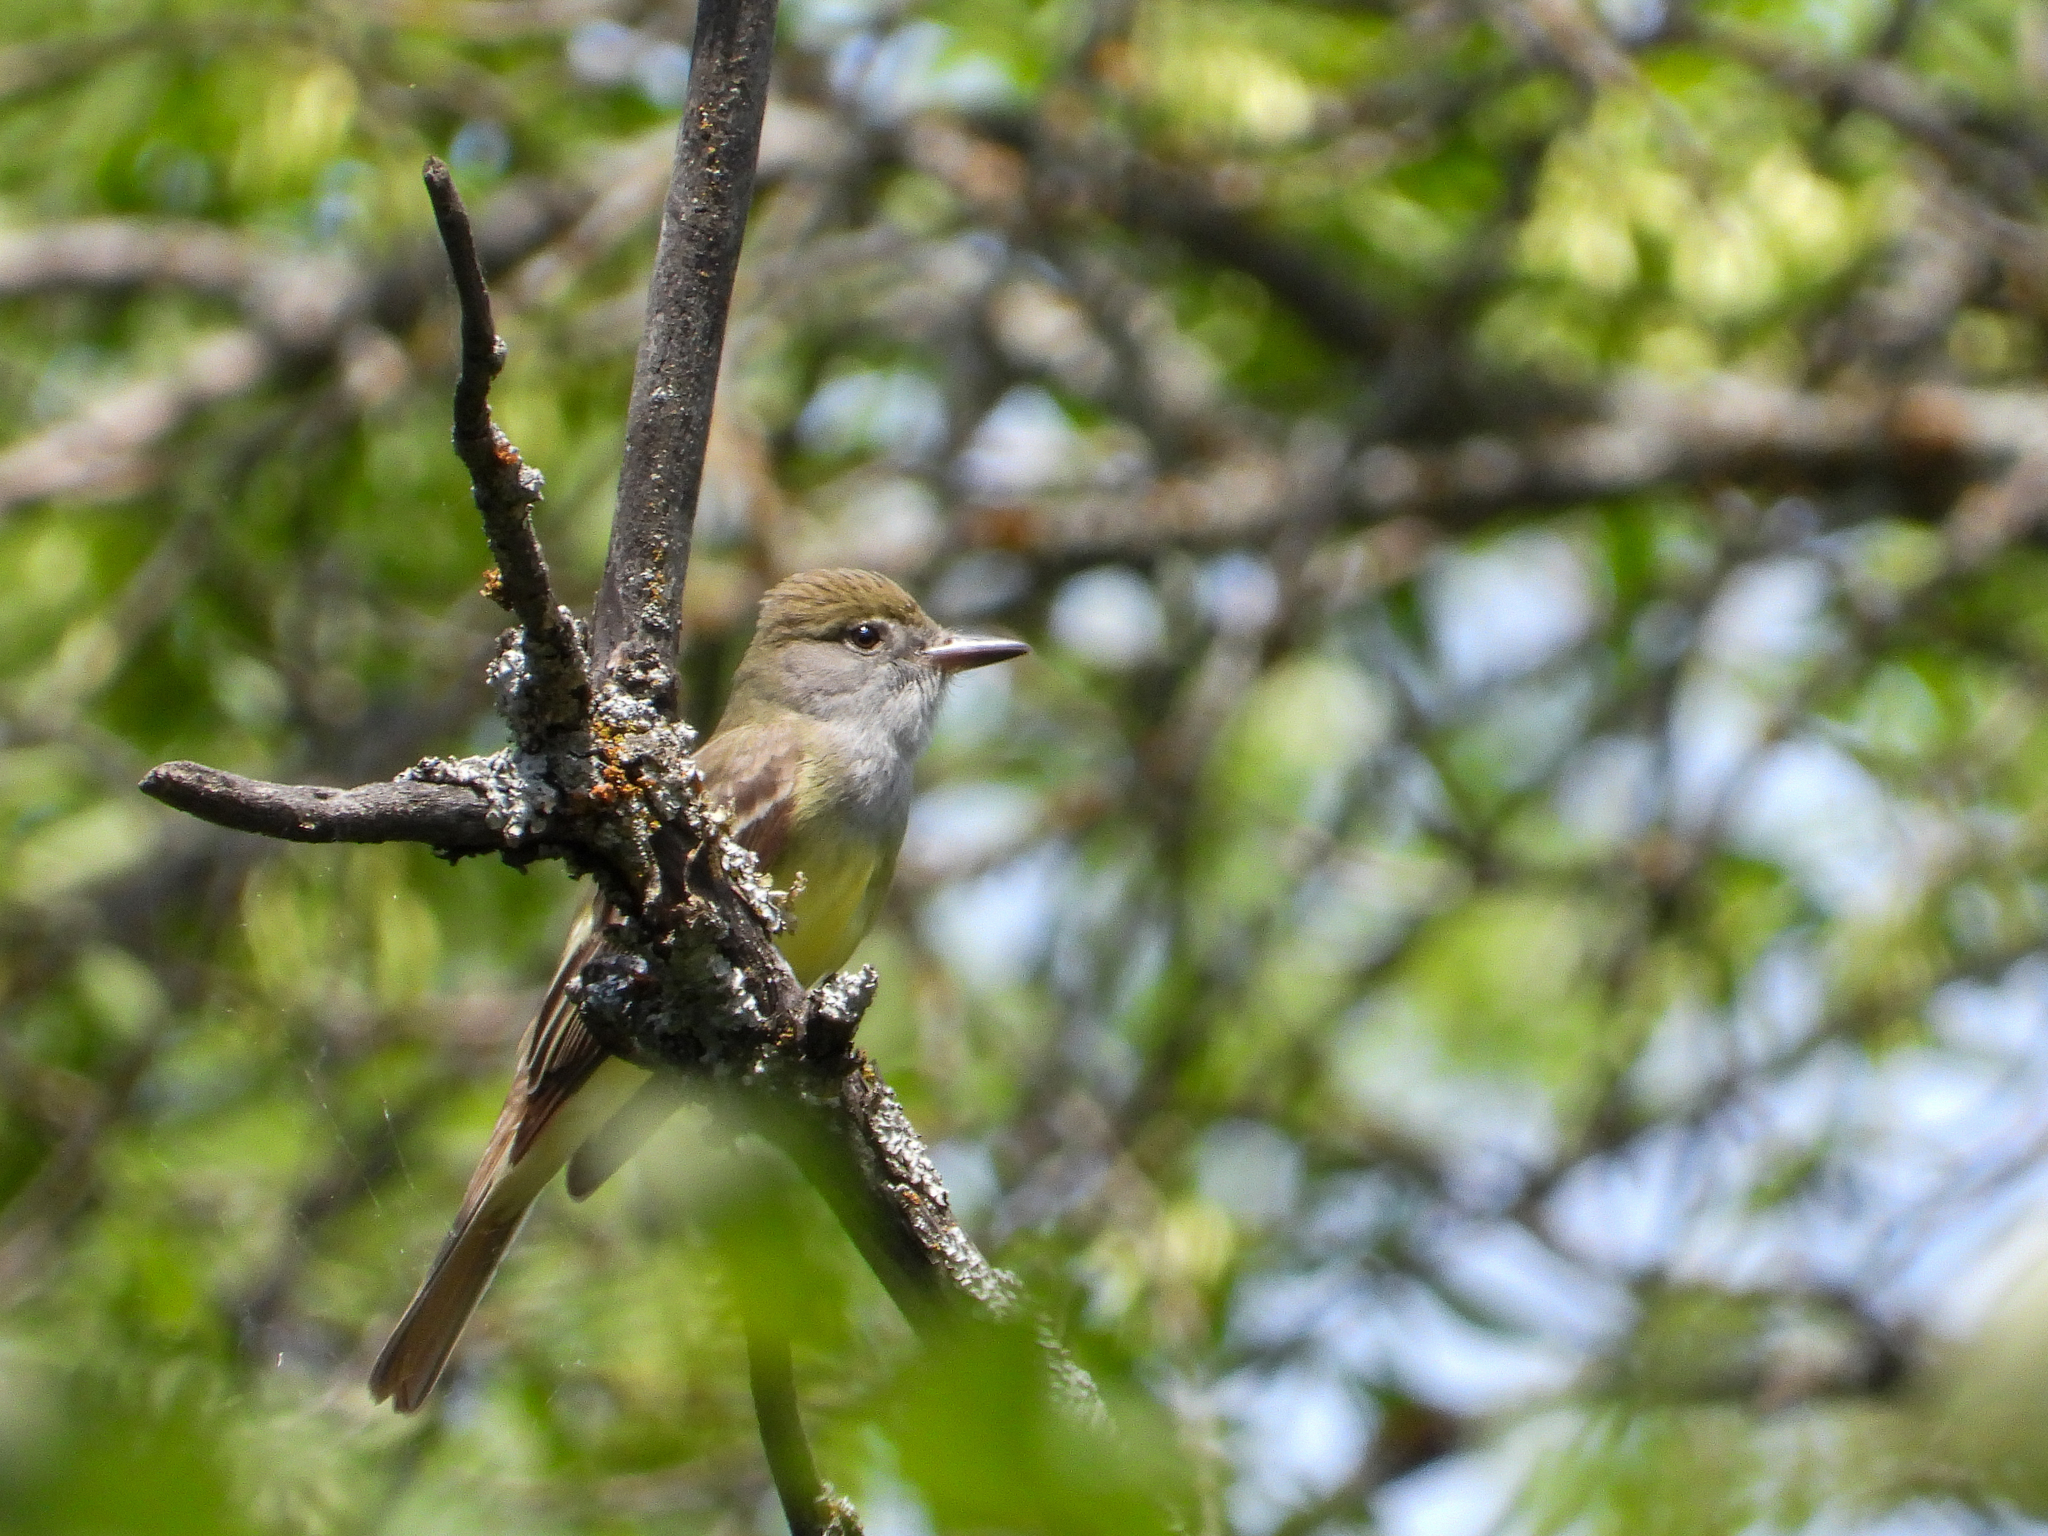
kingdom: Animalia
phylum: Chordata
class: Aves
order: Passeriformes
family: Tyrannidae
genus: Myiarchus
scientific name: Myiarchus crinitus
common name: Great crested flycatcher
